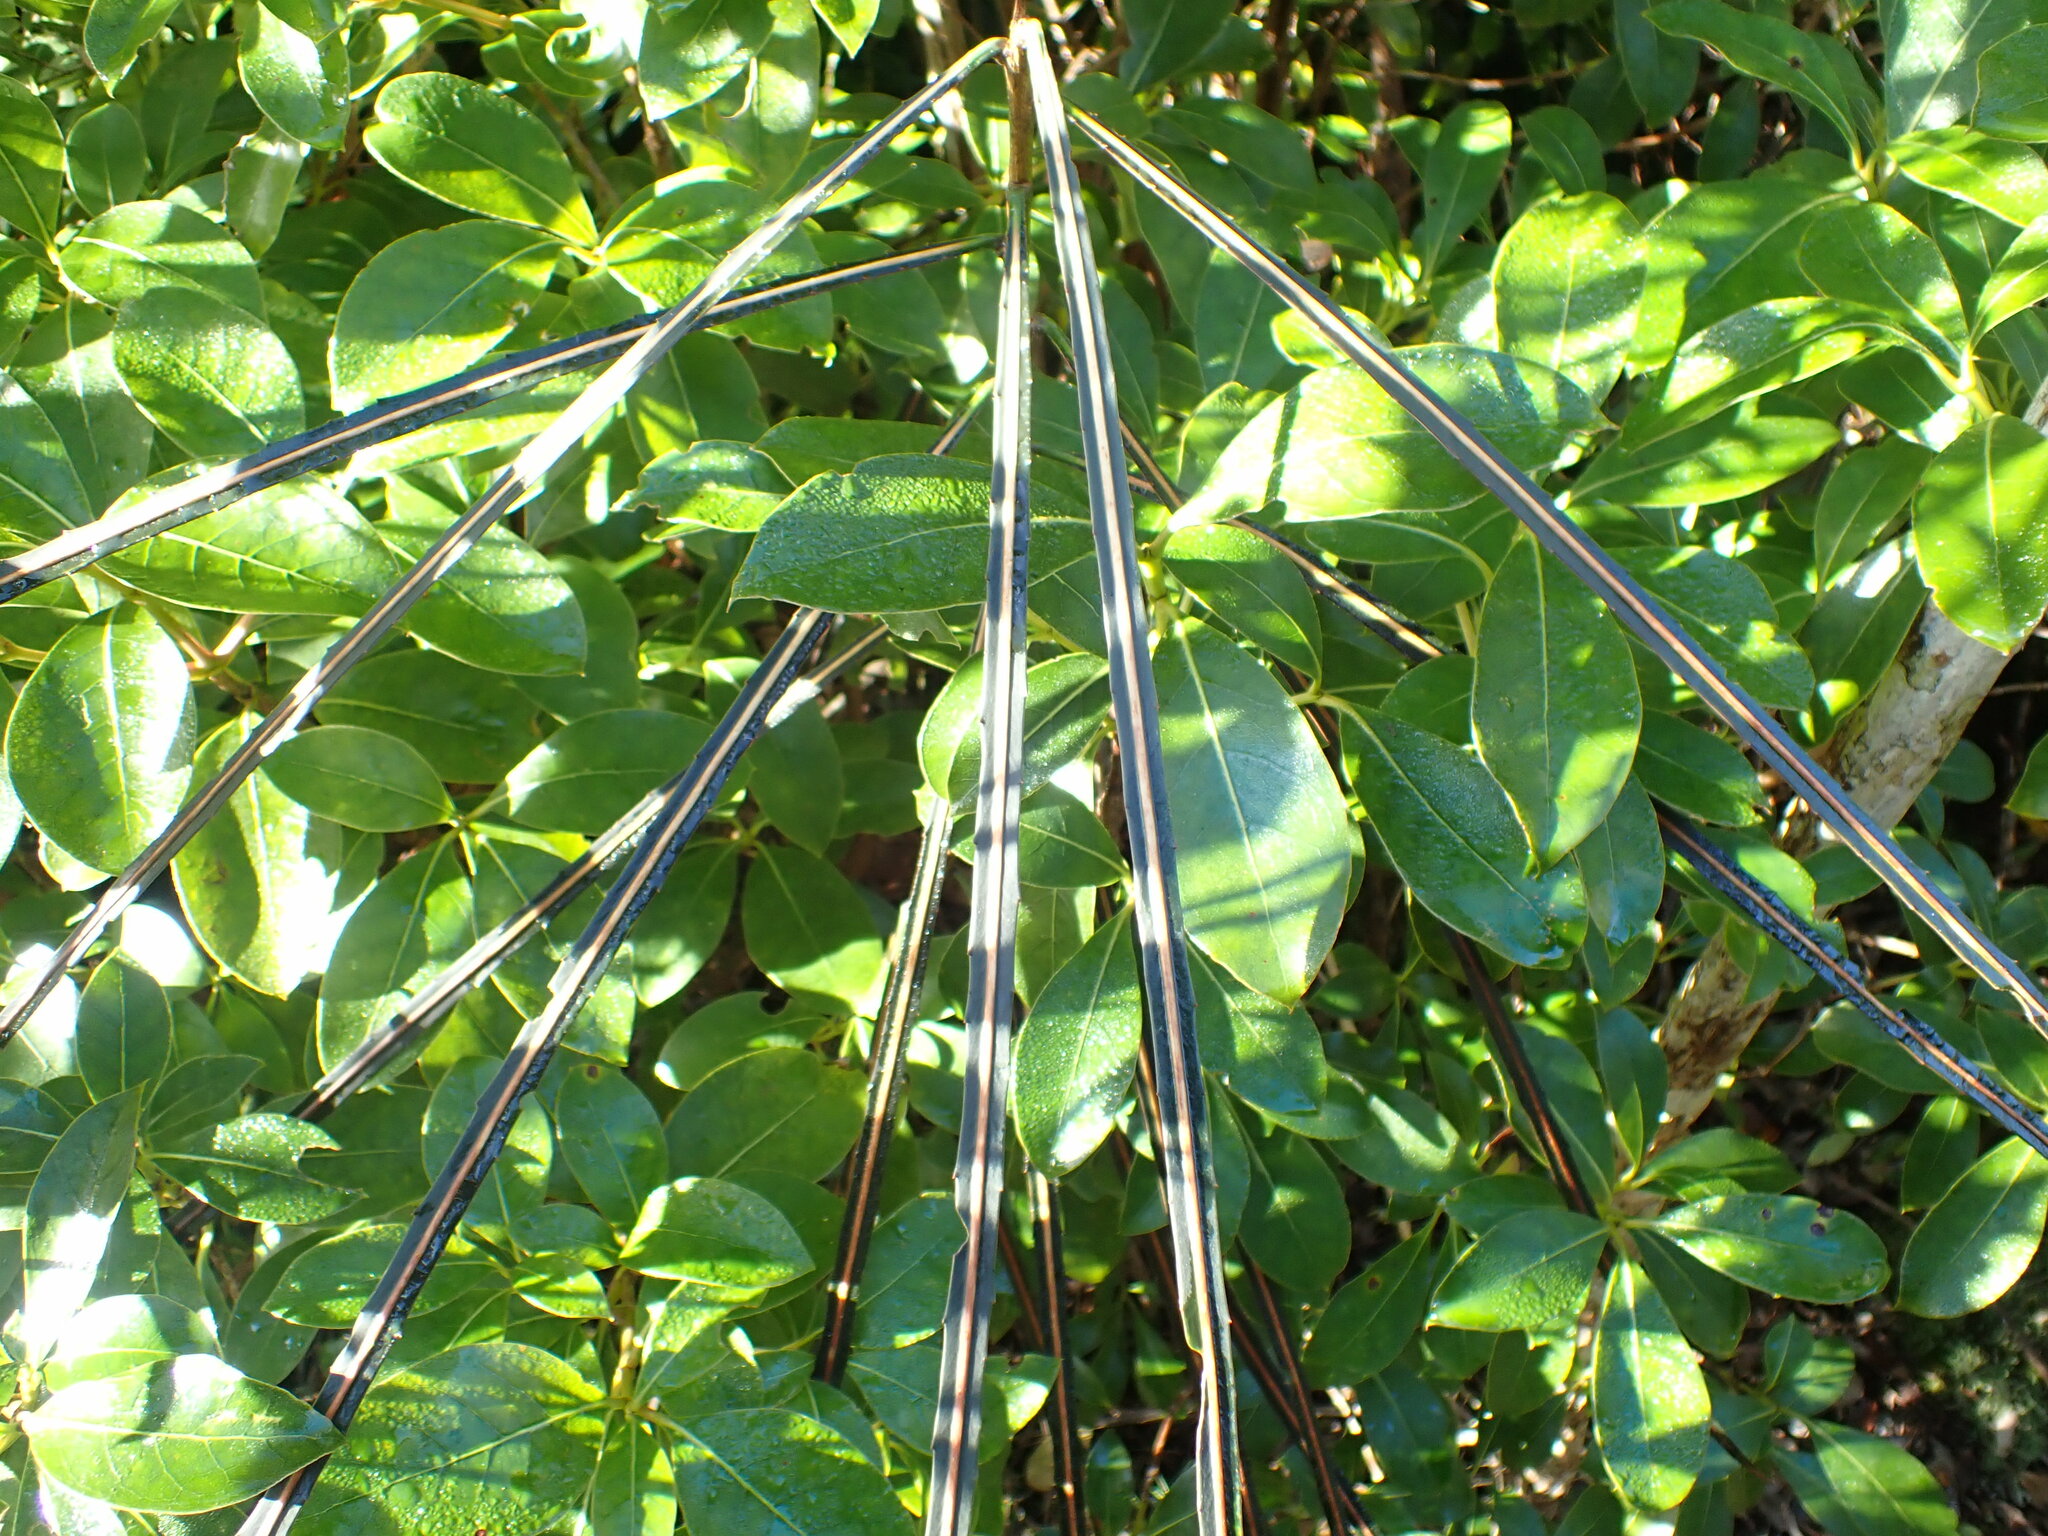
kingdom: Plantae
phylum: Tracheophyta
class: Magnoliopsida
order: Apiales
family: Araliaceae
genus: Pseudopanax
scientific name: Pseudopanax crassifolius
